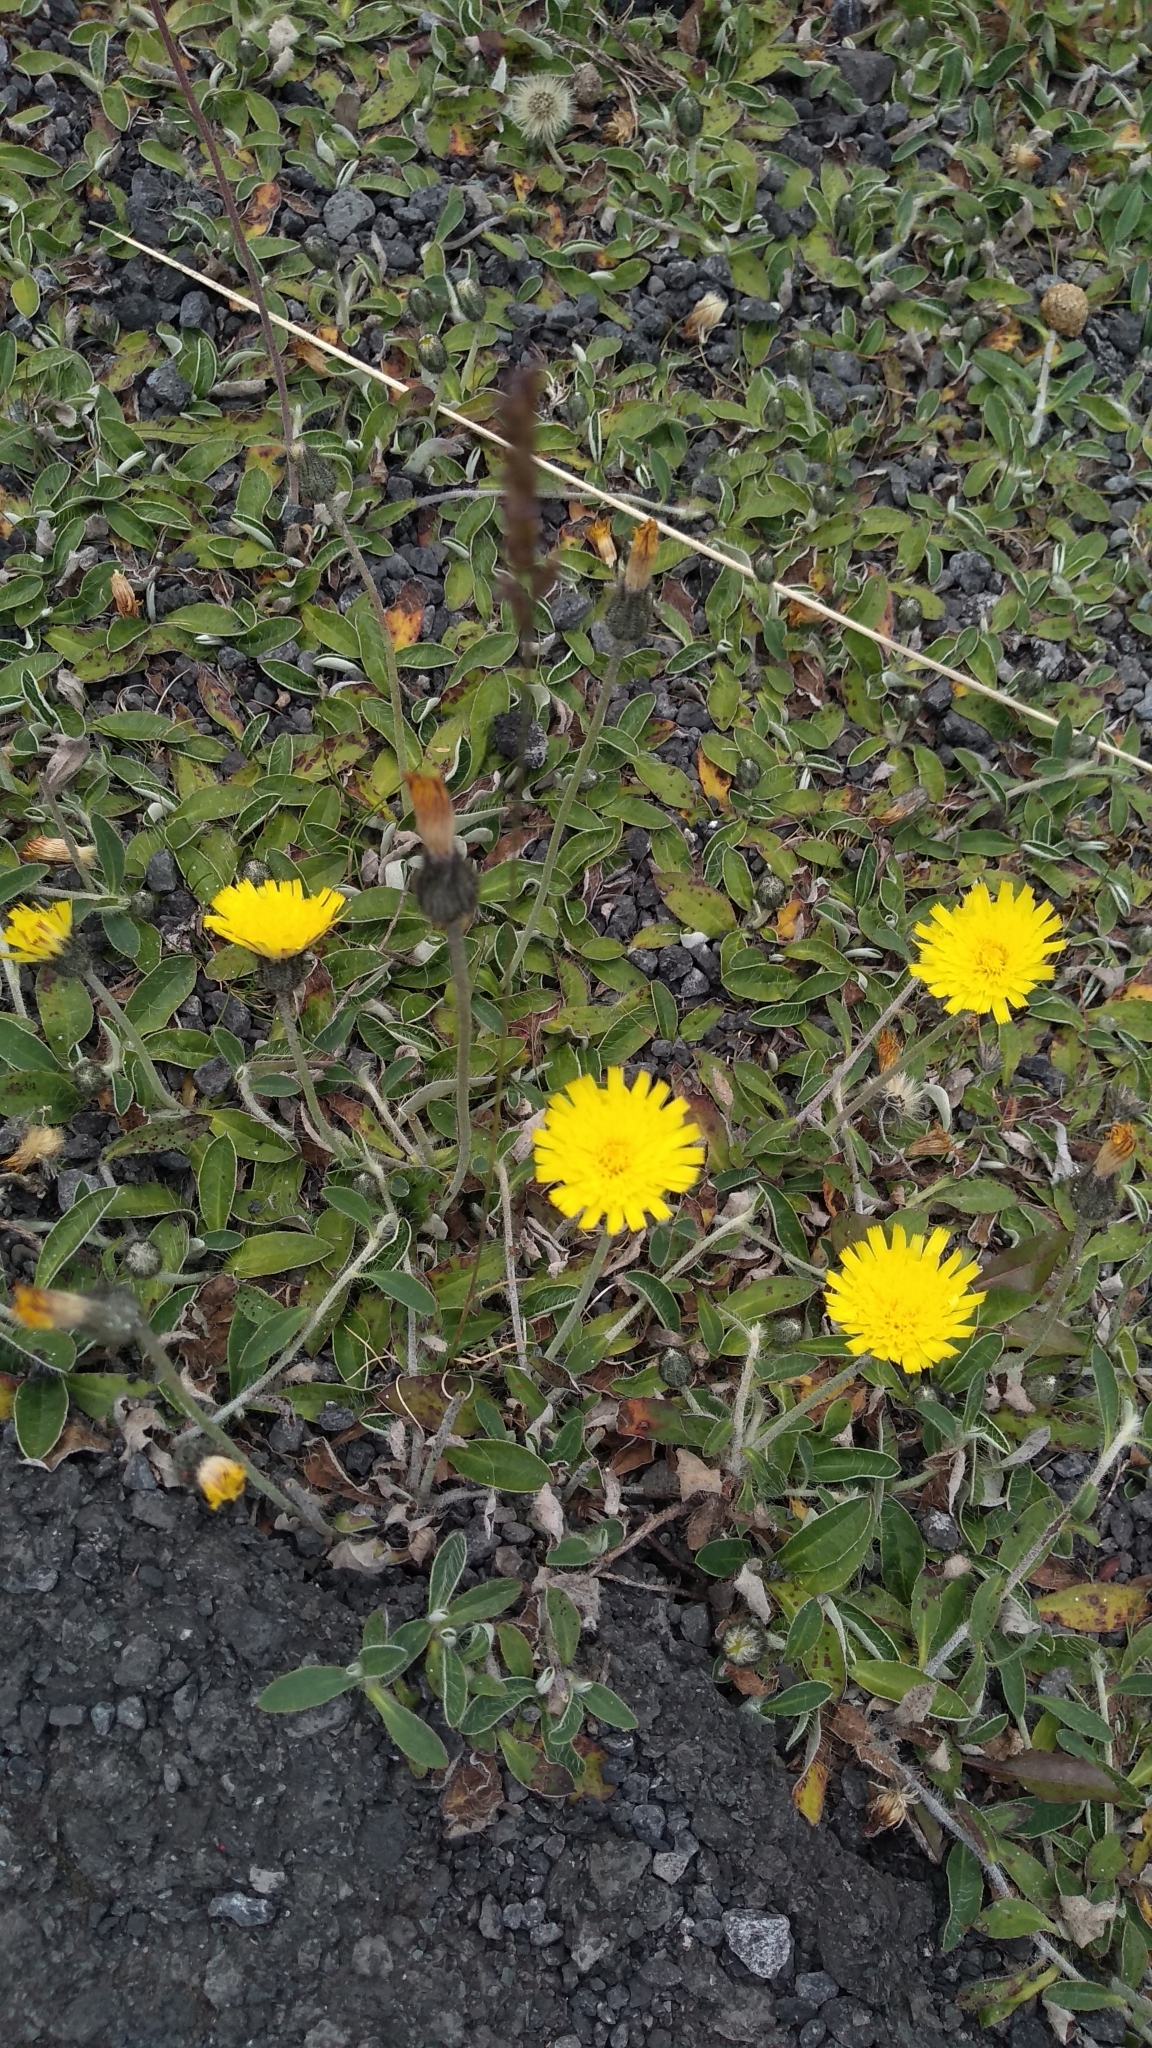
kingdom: Plantae
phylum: Tracheophyta
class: Magnoliopsida
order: Asterales
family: Asteraceae
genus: Pilosella
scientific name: Pilosella officinarum
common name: Mouse-ear hawkweed
